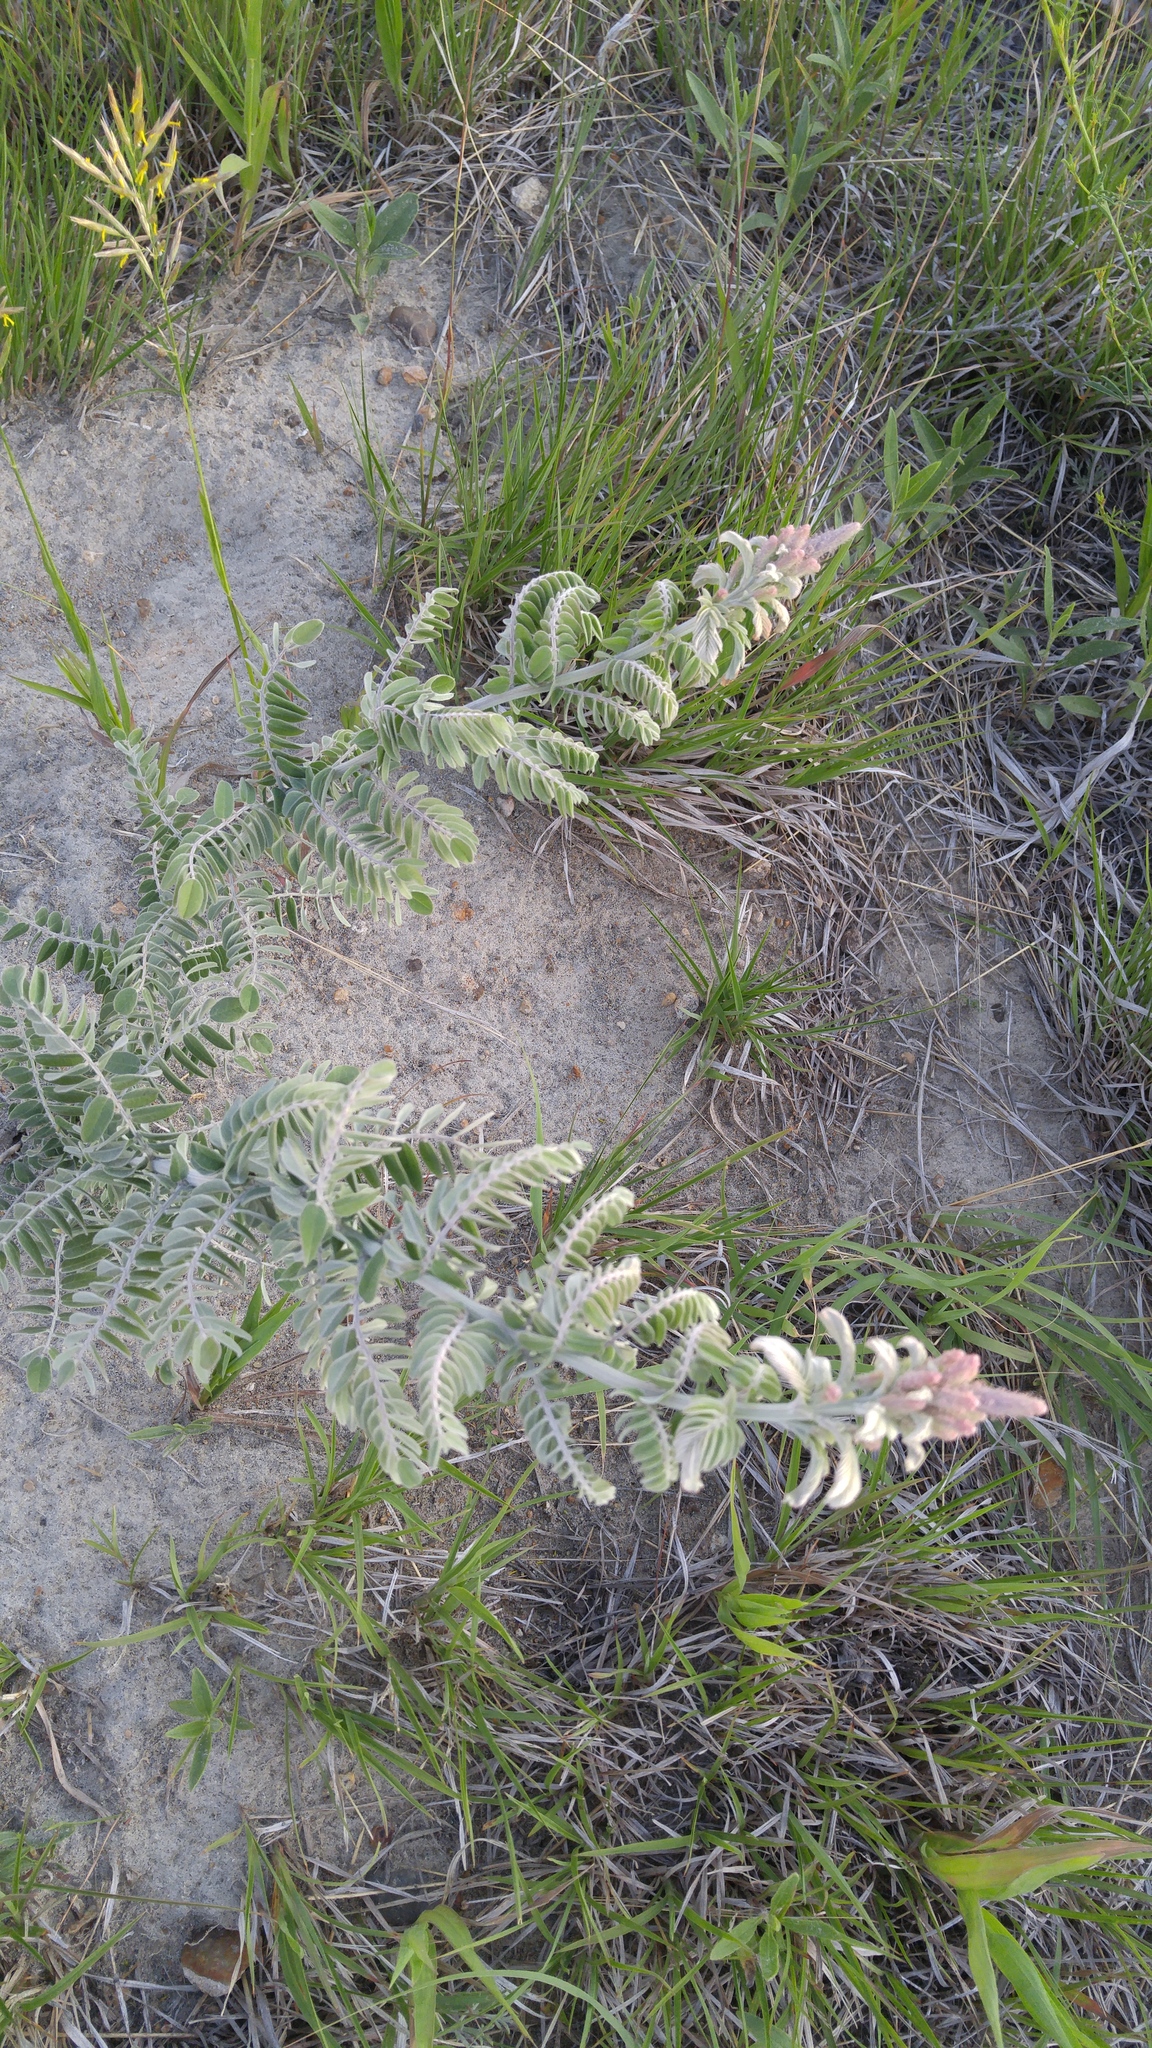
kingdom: Plantae
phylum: Tracheophyta
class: Magnoliopsida
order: Fabales
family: Fabaceae
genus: Amorpha
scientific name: Amorpha canescens
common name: Leadplant
